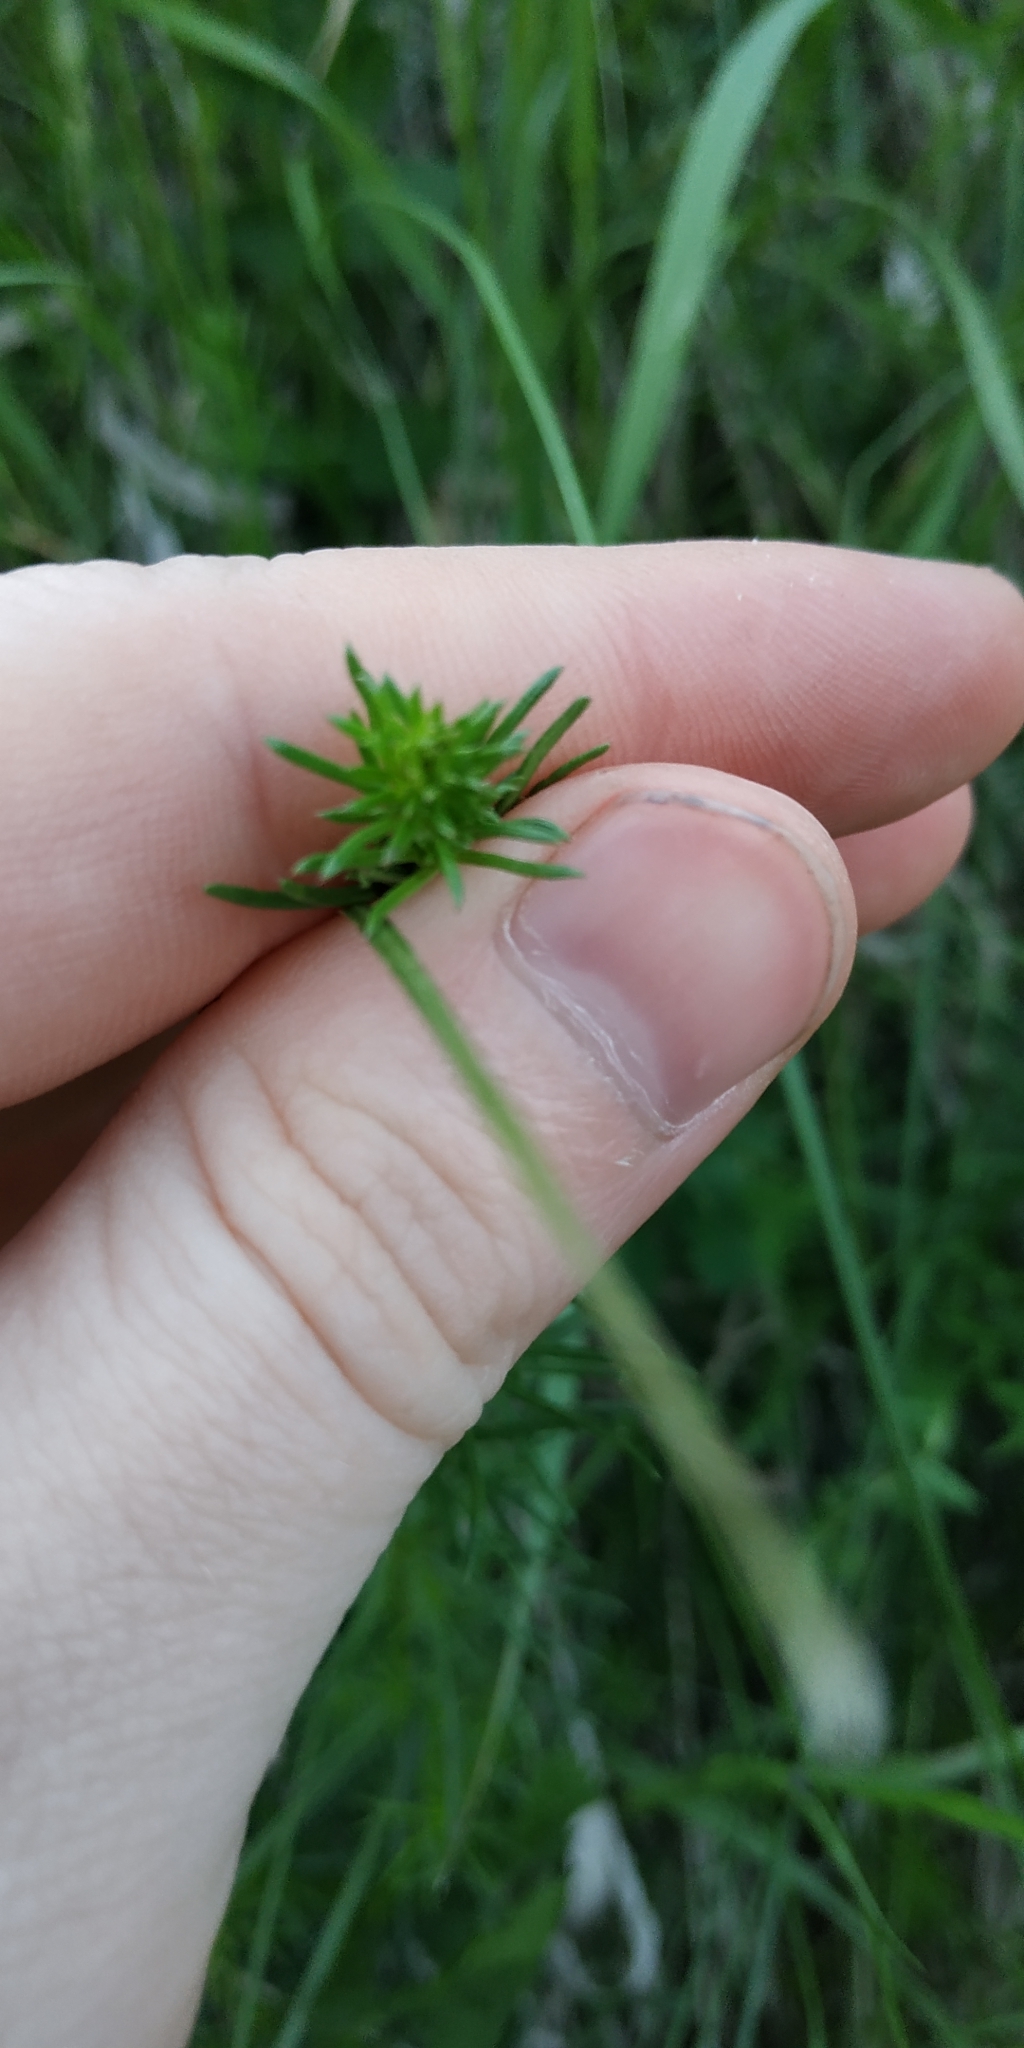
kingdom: Plantae
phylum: Tracheophyta
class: Magnoliopsida
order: Gentianales
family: Rubiaceae
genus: Galium
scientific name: Galium verum
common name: Lady's bedstraw
